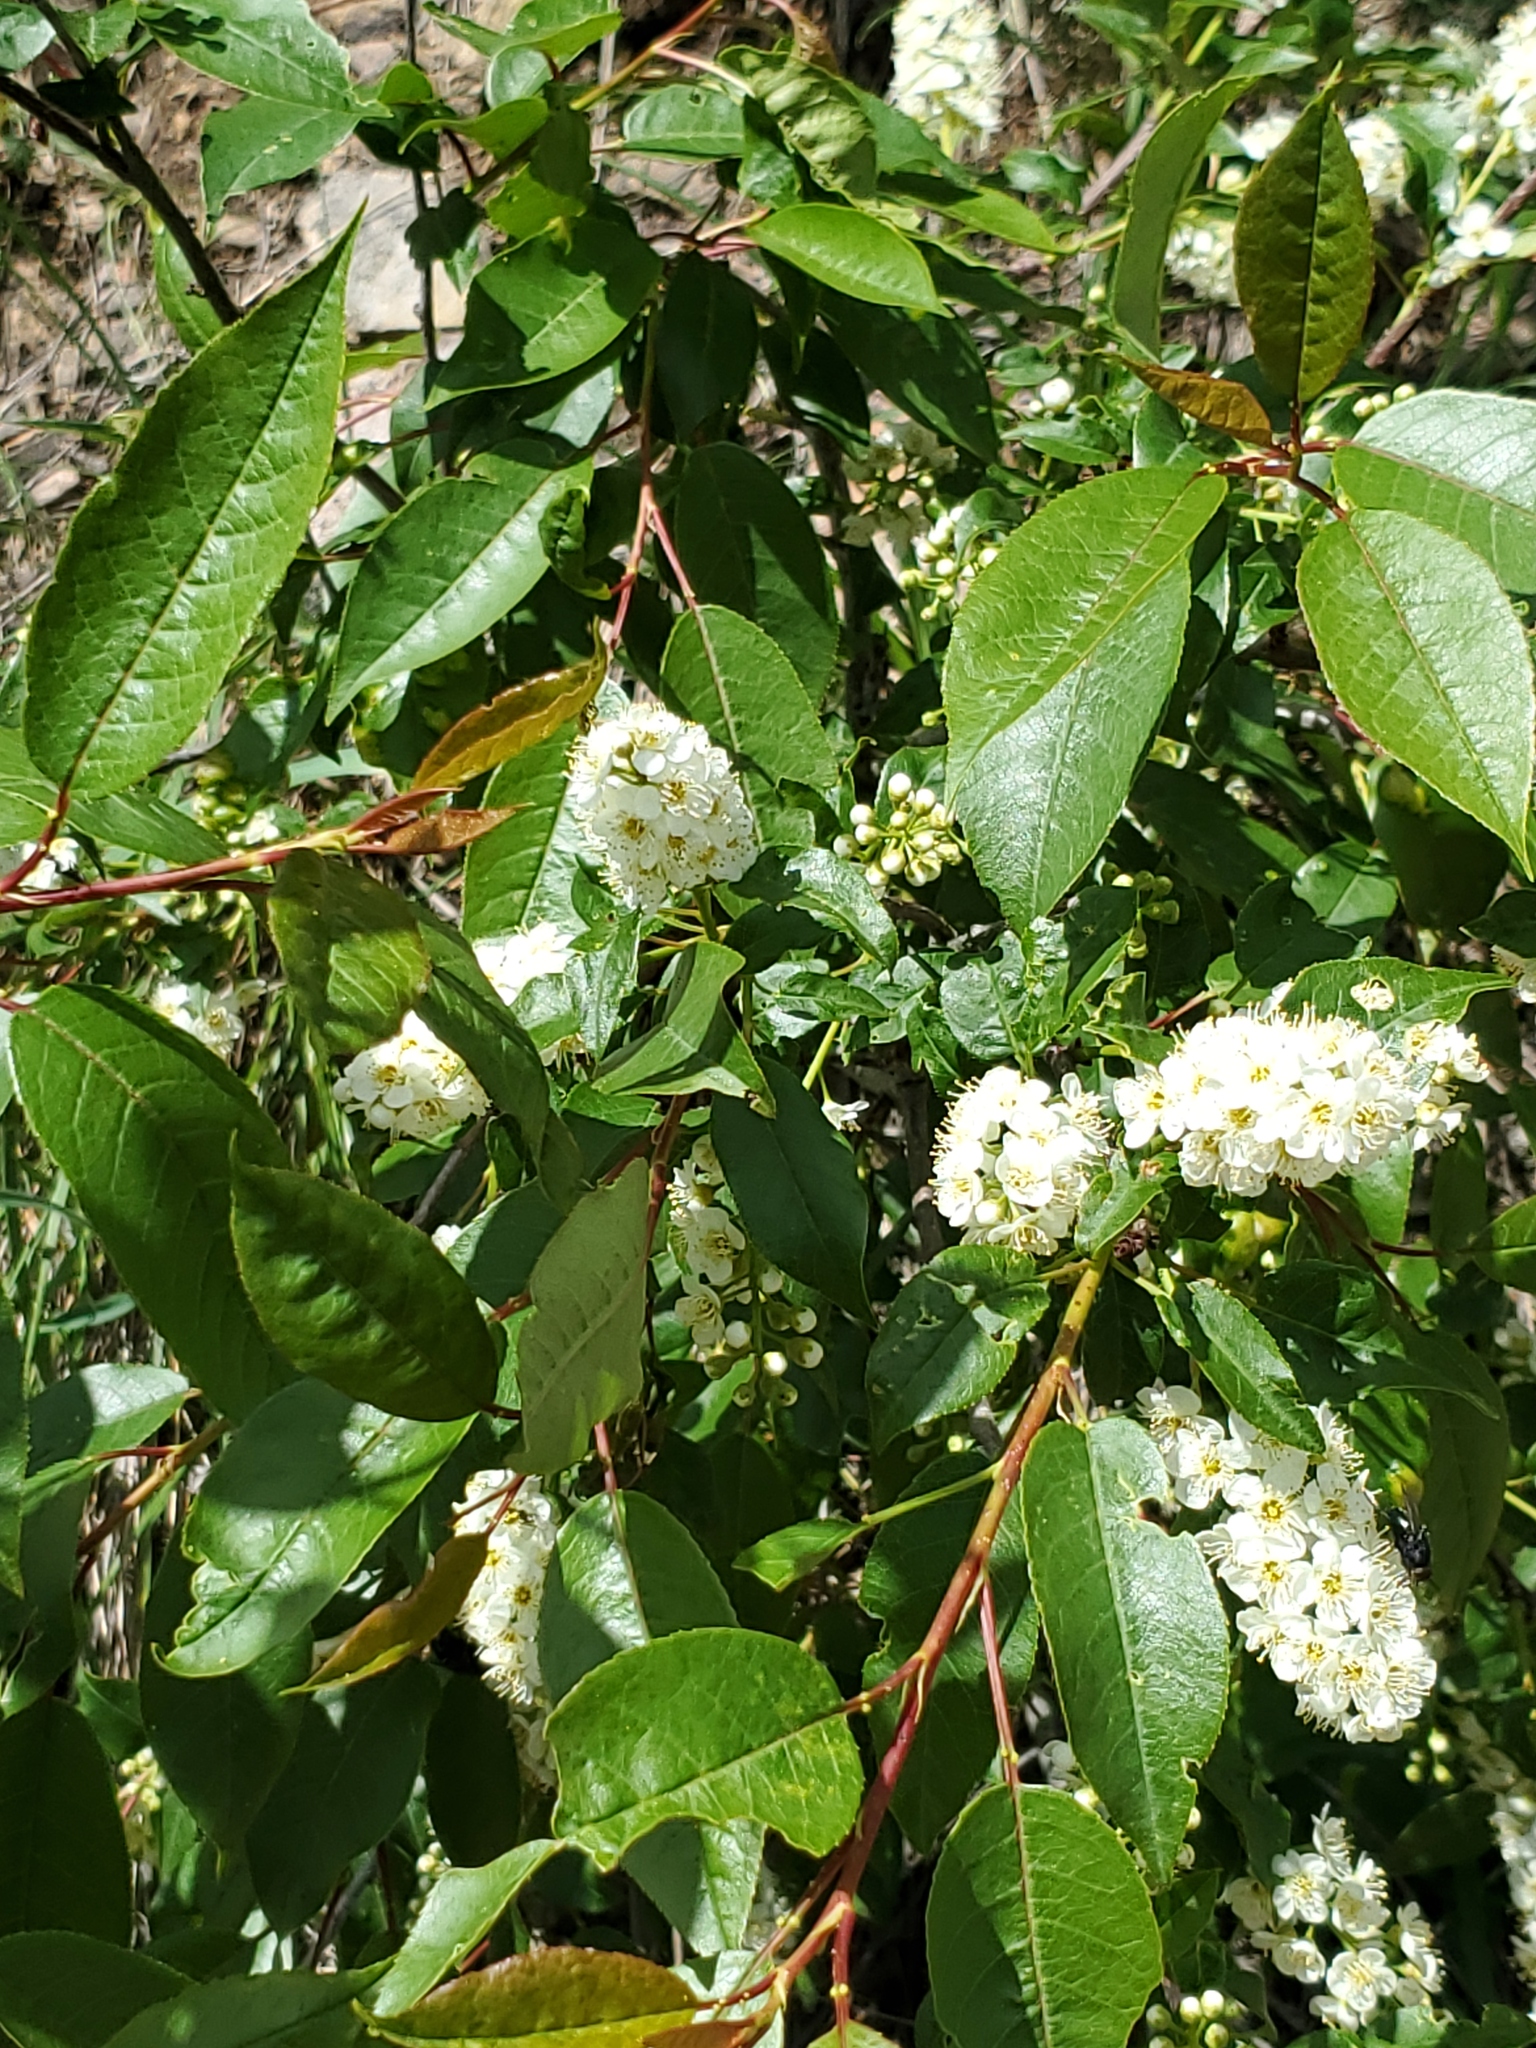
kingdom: Plantae
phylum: Tracheophyta
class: Magnoliopsida
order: Rosales
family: Rosaceae
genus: Prunus
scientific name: Prunus virginiana
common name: Chokecherry
